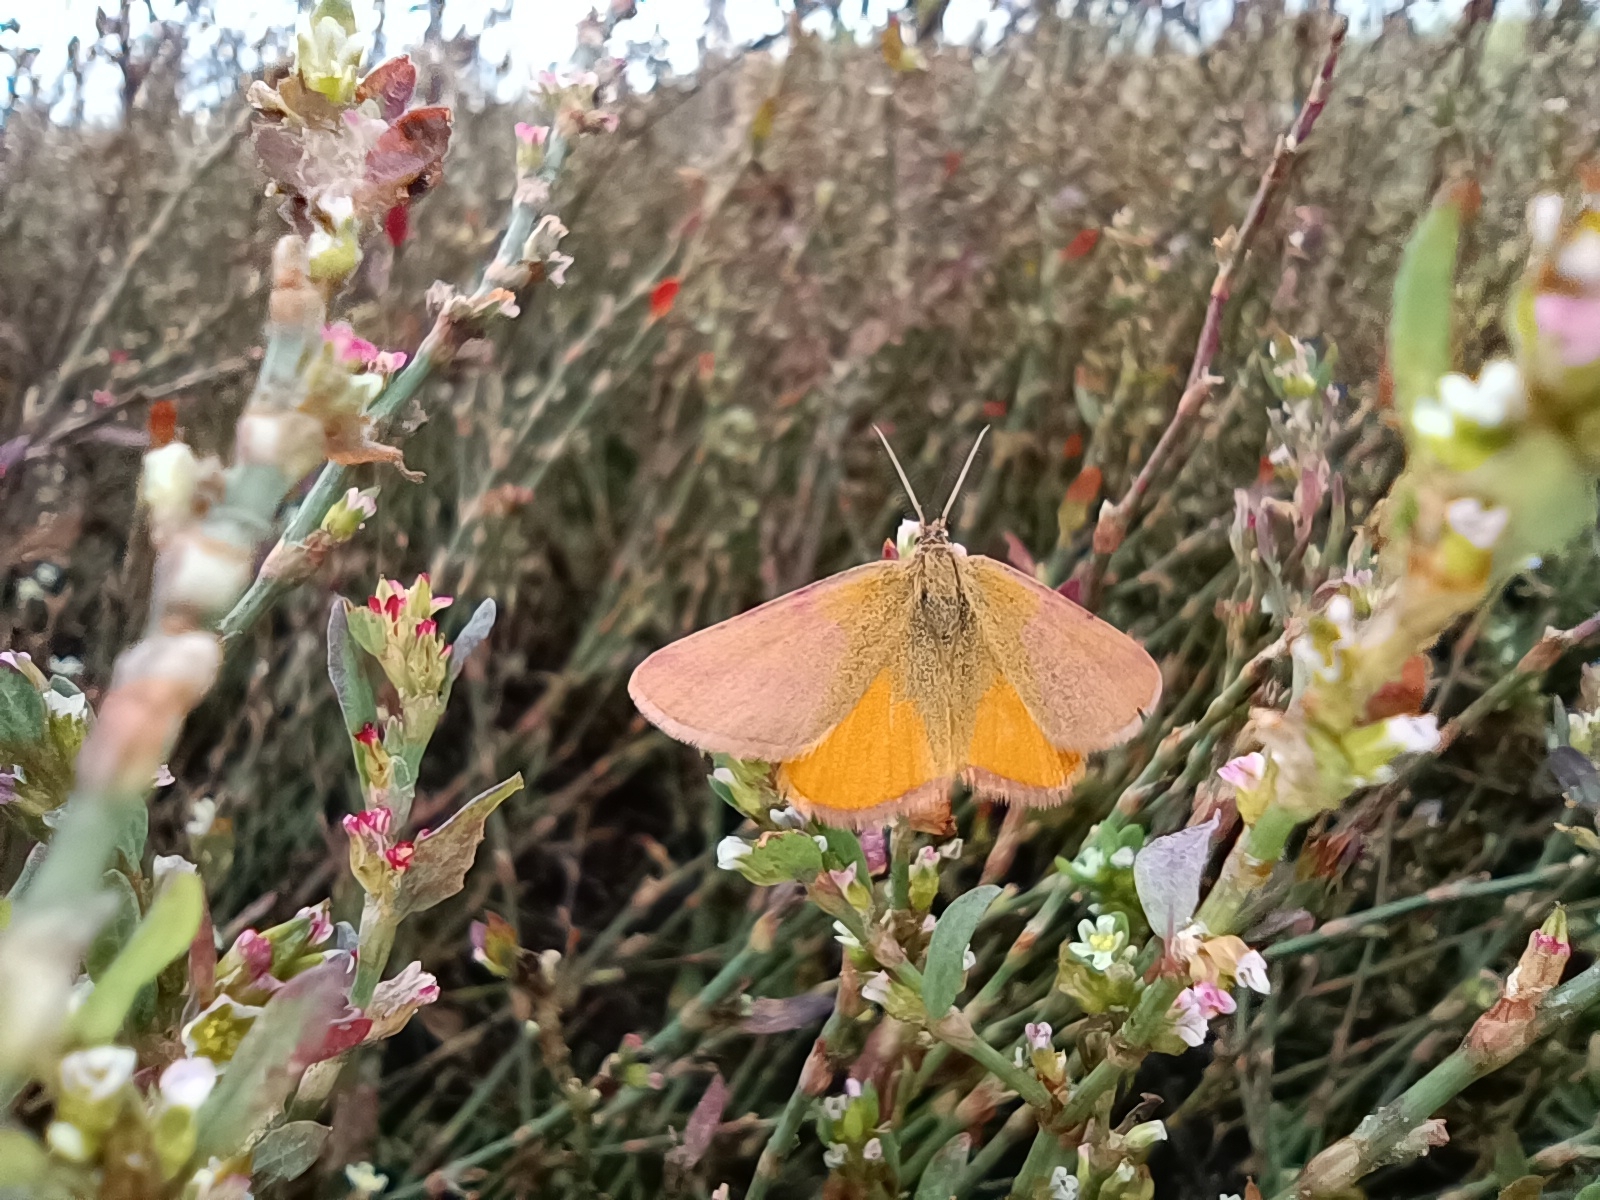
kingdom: Animalia
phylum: Arthropoda
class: Insecta
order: Lepidoptera
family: Geometridae
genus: Lythria
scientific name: Lythria purpuraria
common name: Purple-barred yellow
